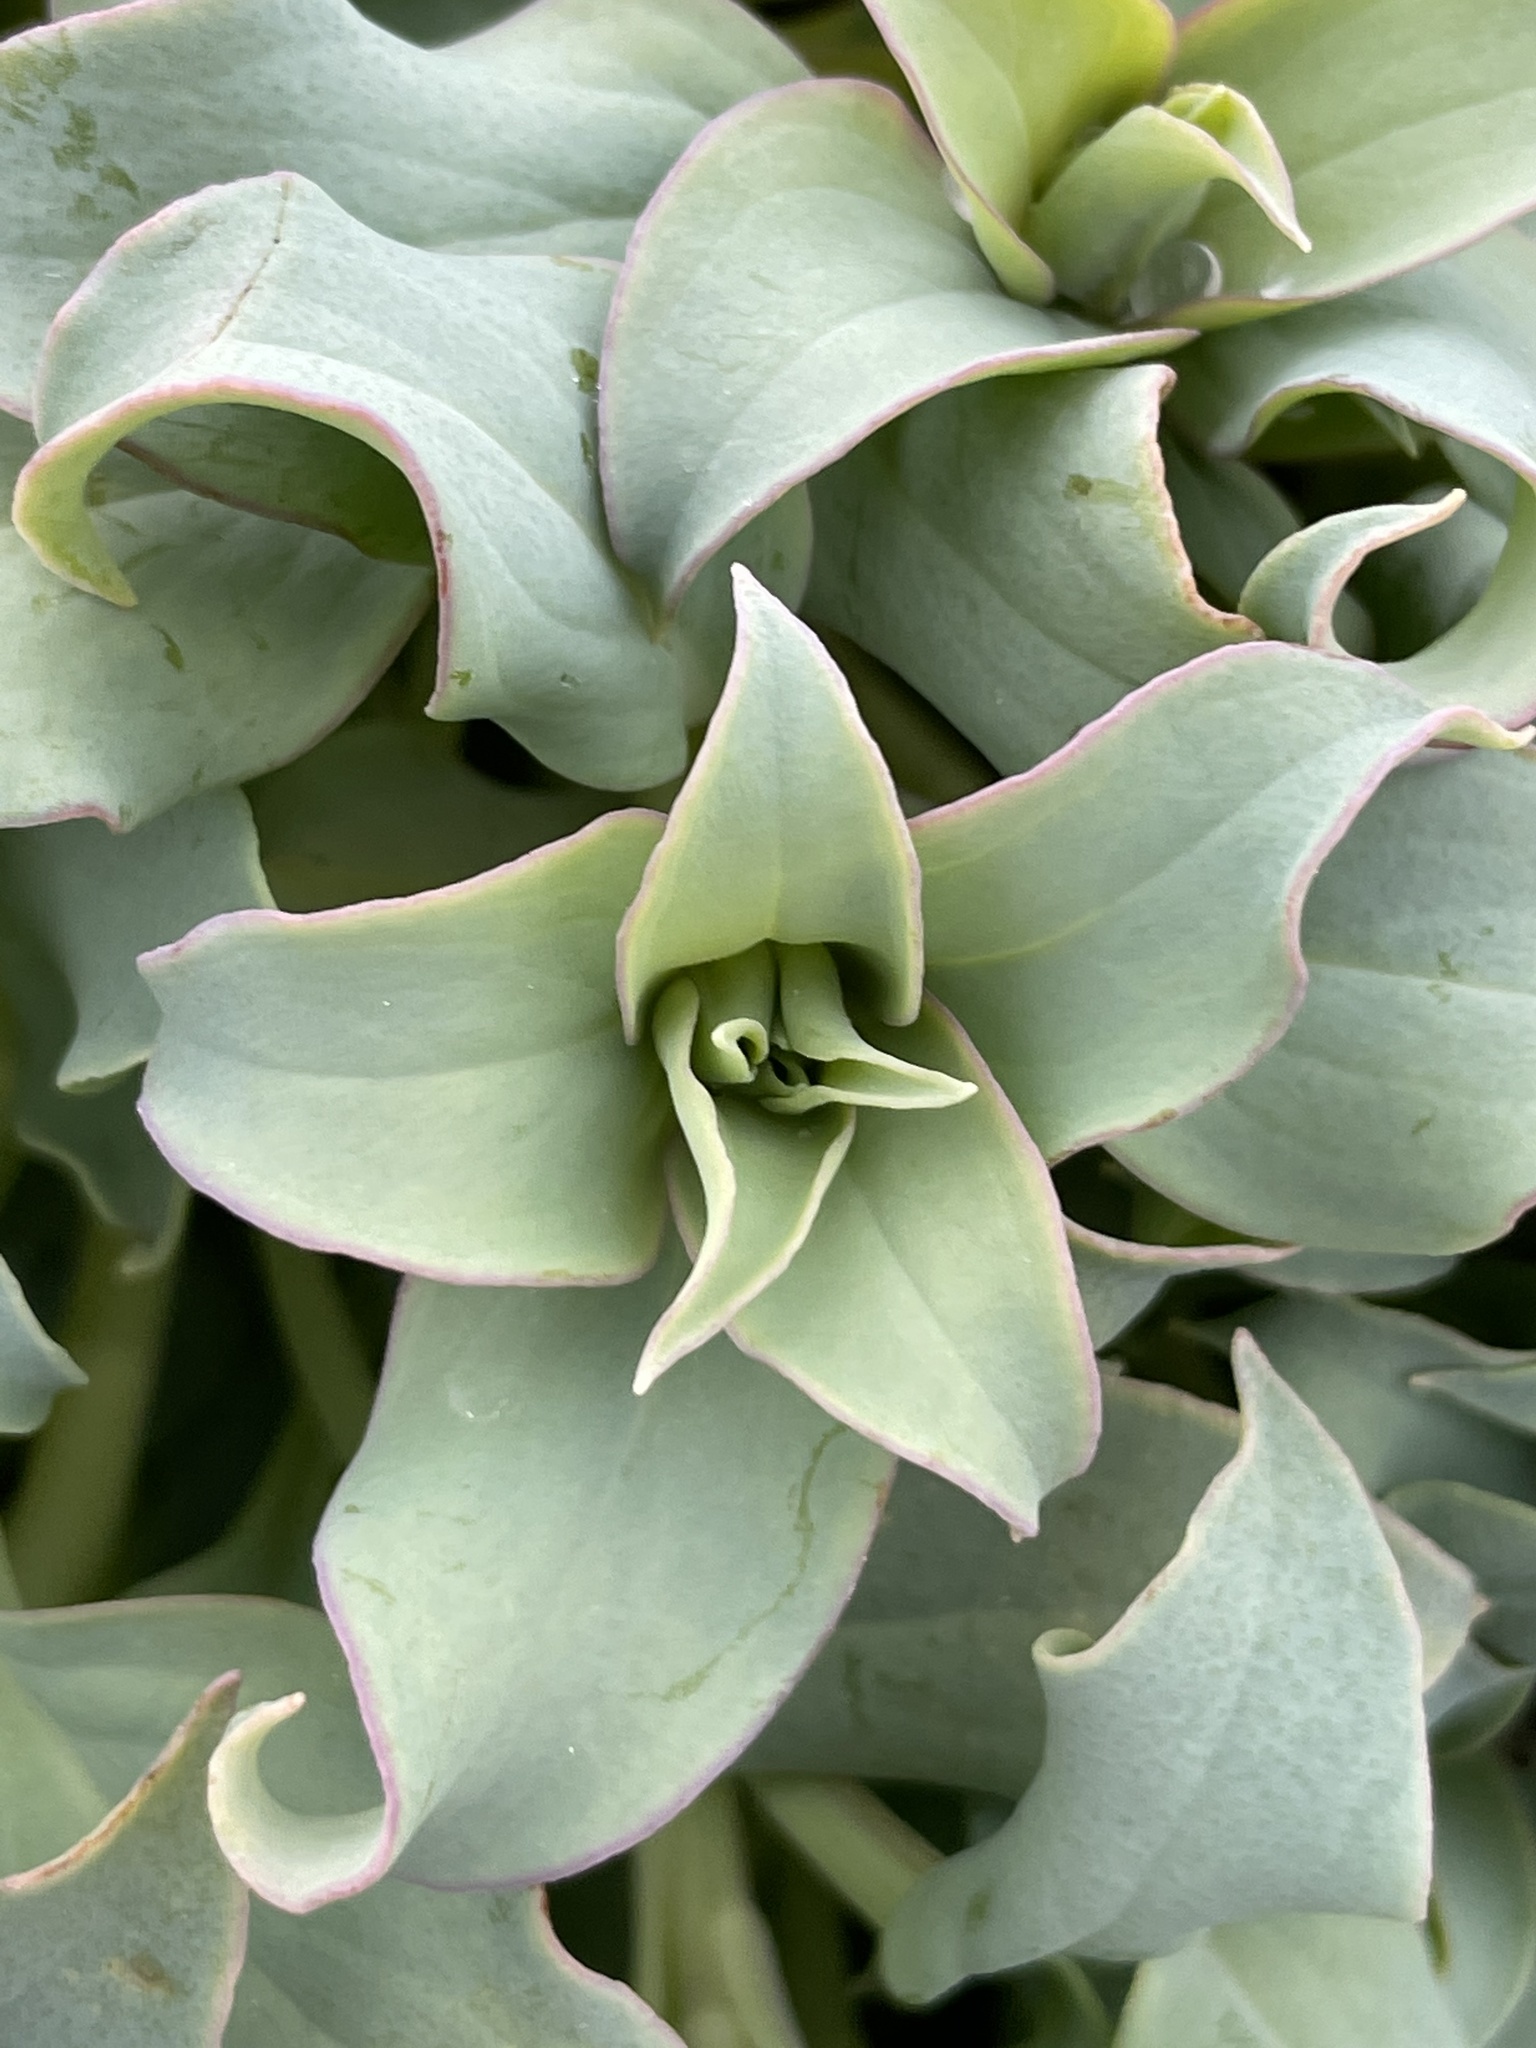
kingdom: Plantae
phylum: Tracheophyta
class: Magnoliopsida
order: Boraginales
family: Boraginaceae
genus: Mertensia
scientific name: Mertensia maritima
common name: Oysterplant
